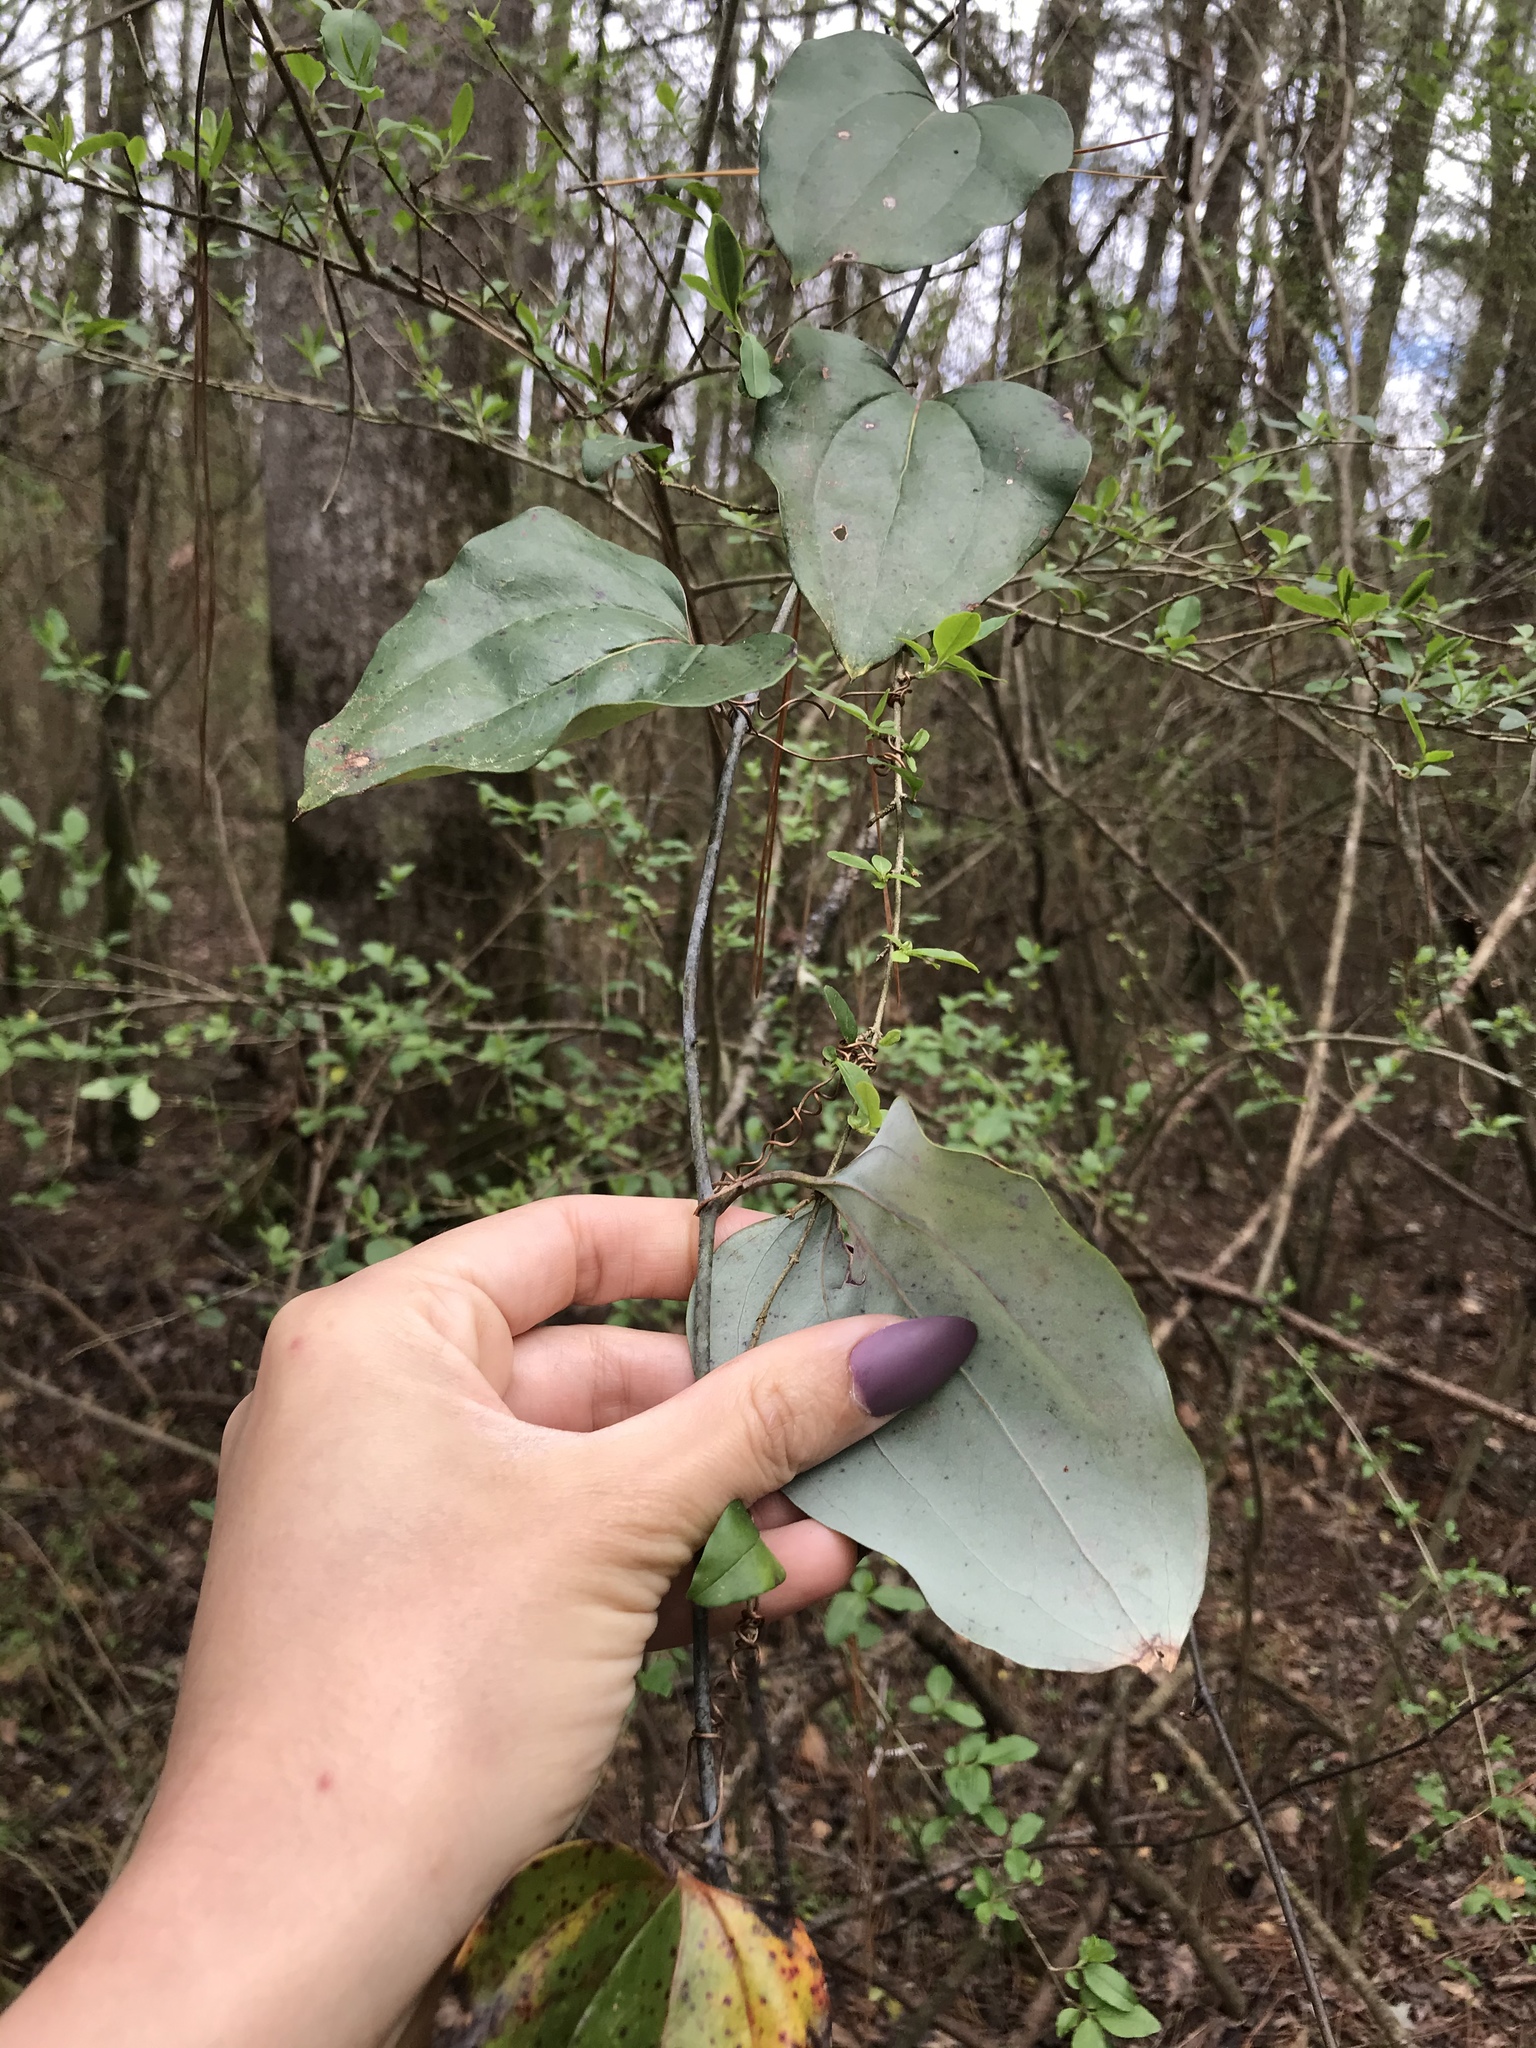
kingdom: Plantae
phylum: Tracheophyta
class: Liliopsida
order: Liliales
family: Smilacaceae
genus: Smilax
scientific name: Smilax glauca
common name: Cat greenbrier
